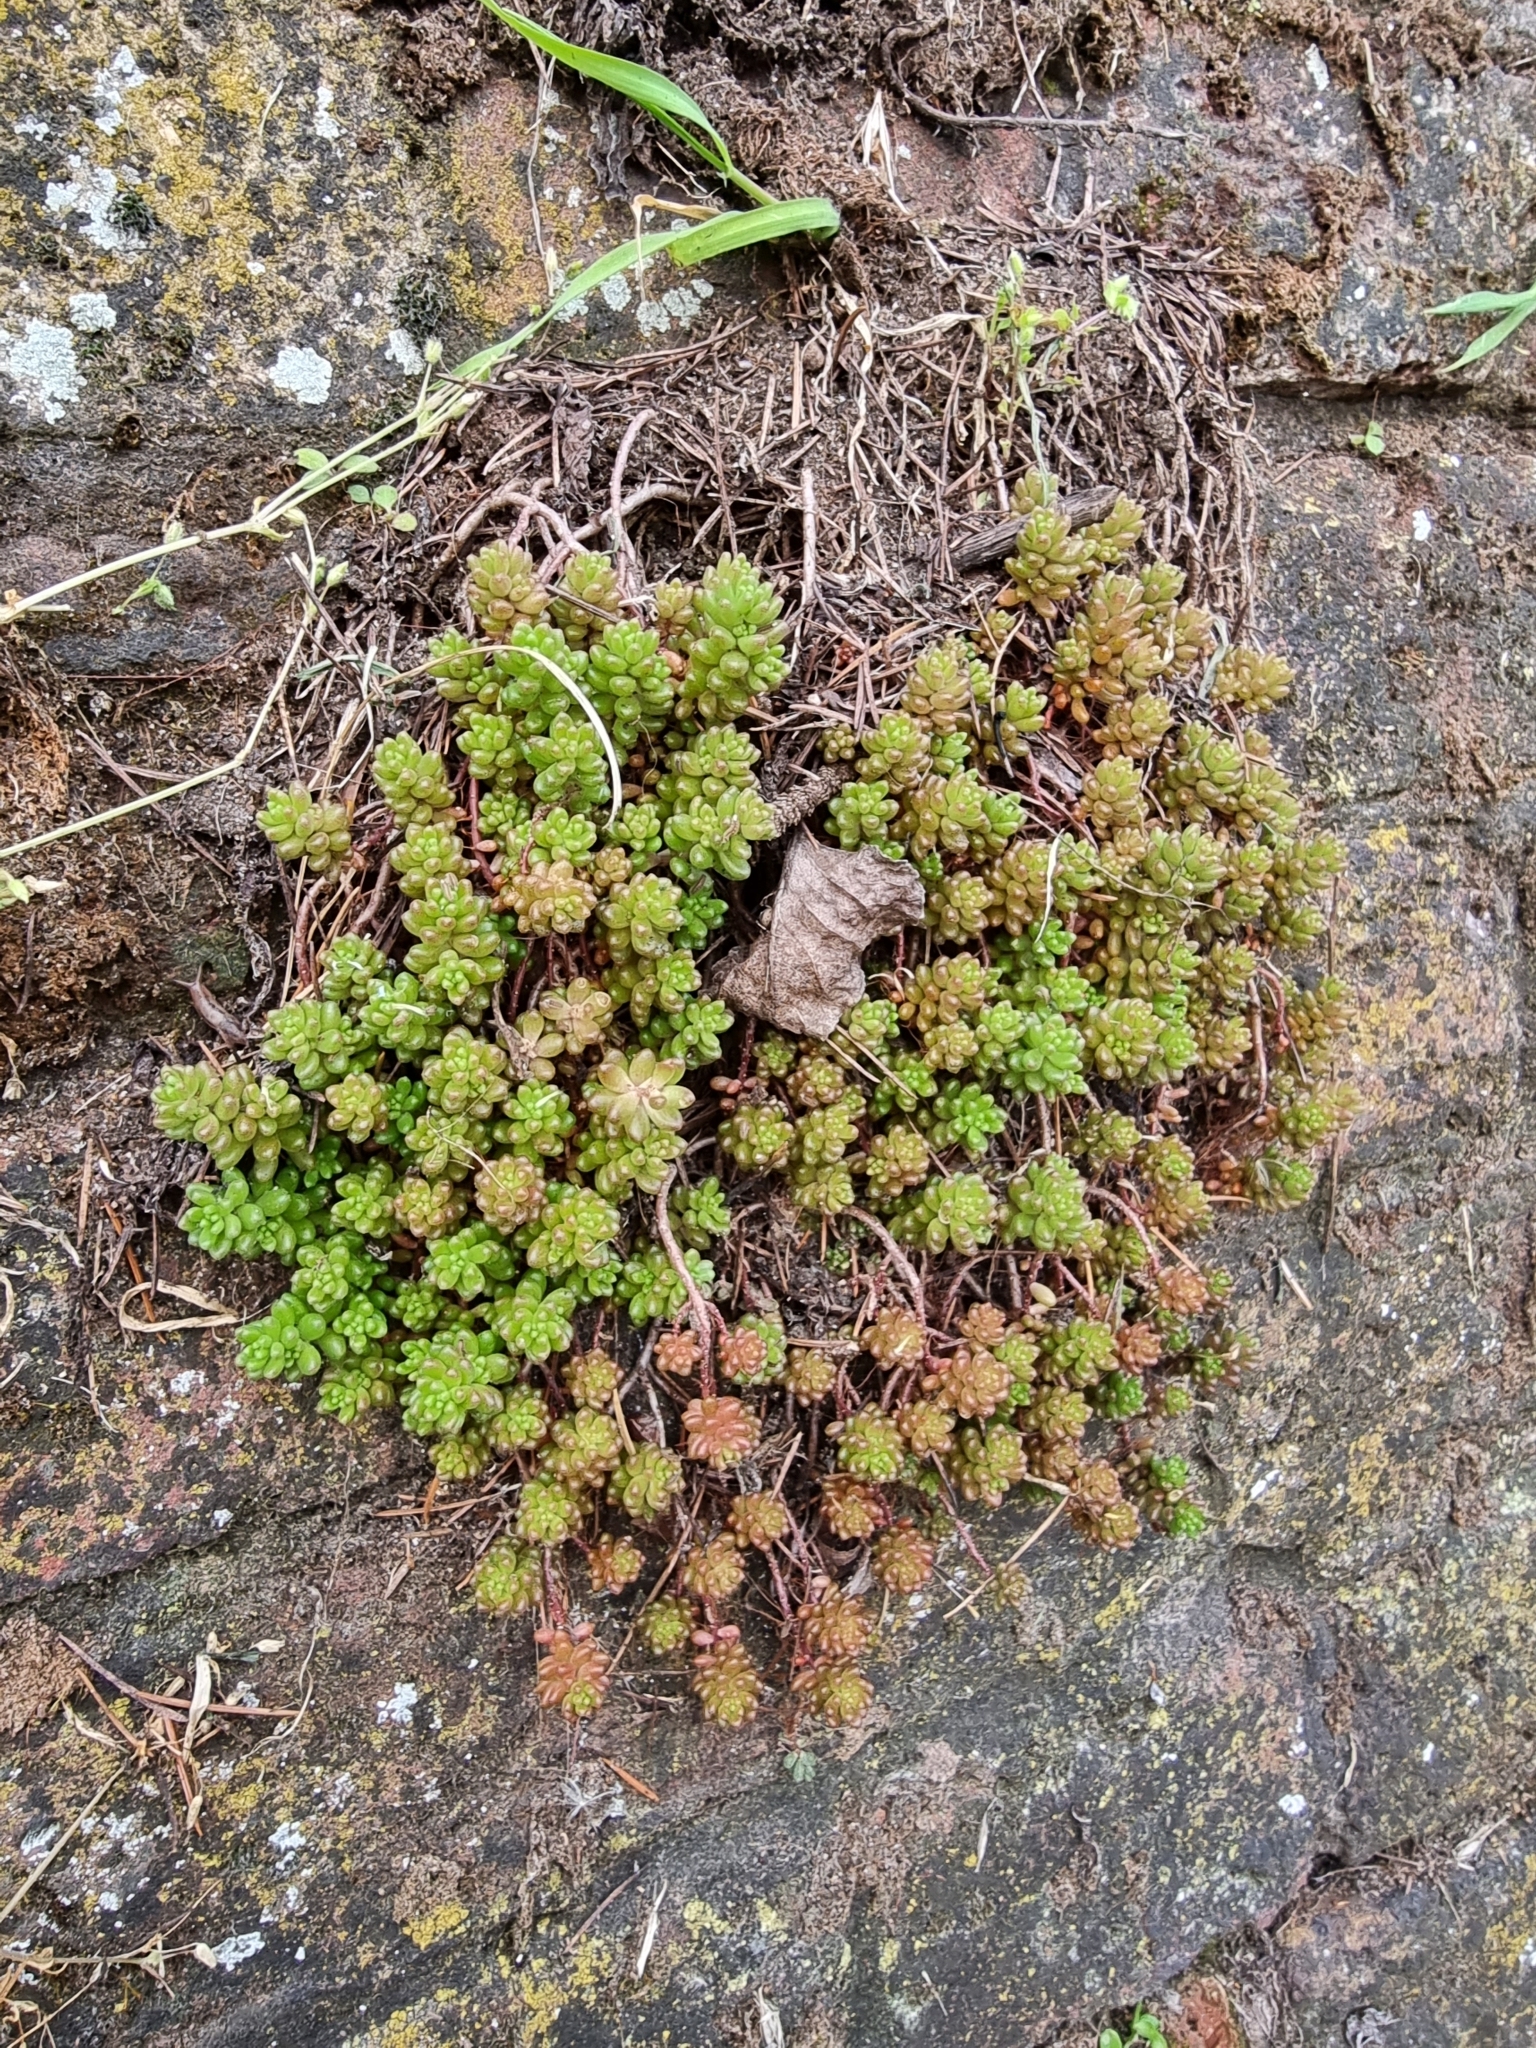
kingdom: Plantae
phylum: Tracheophyta
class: Magnoliopsida
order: Saxifragales
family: Crassulaceae
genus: Sedum
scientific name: Sedum album
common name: White stonecrop
